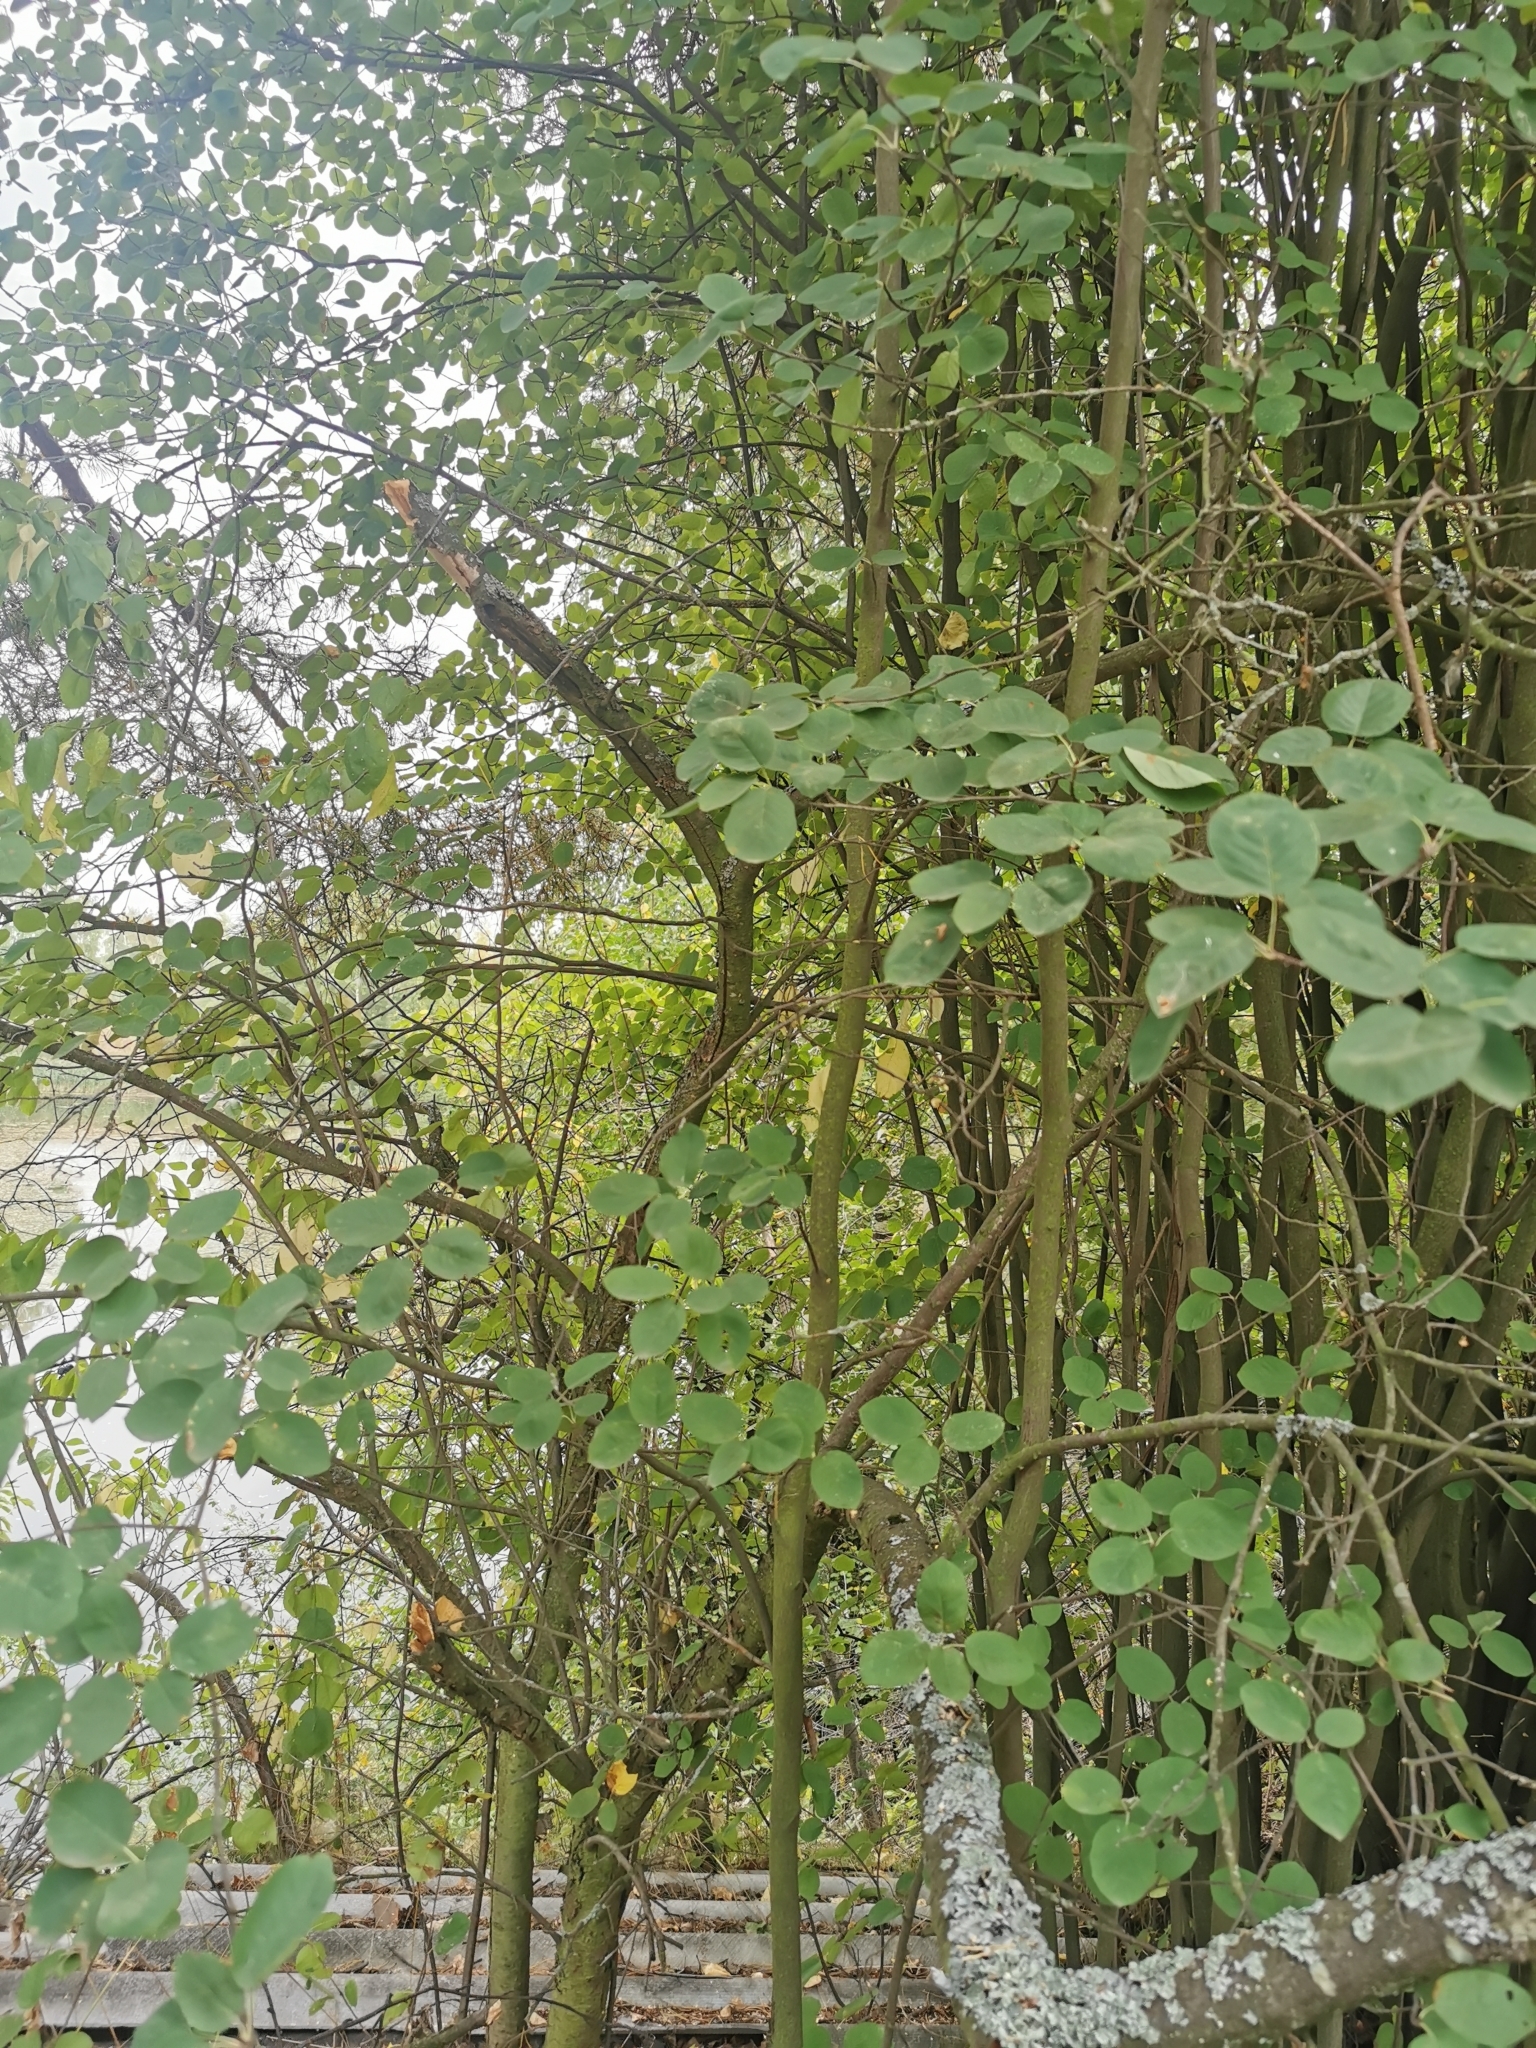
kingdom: Plantae
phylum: Tracheophyta
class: Magnoliopsida
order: Rosales
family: Rosaceae
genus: Amelanchier
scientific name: Amelanchier
